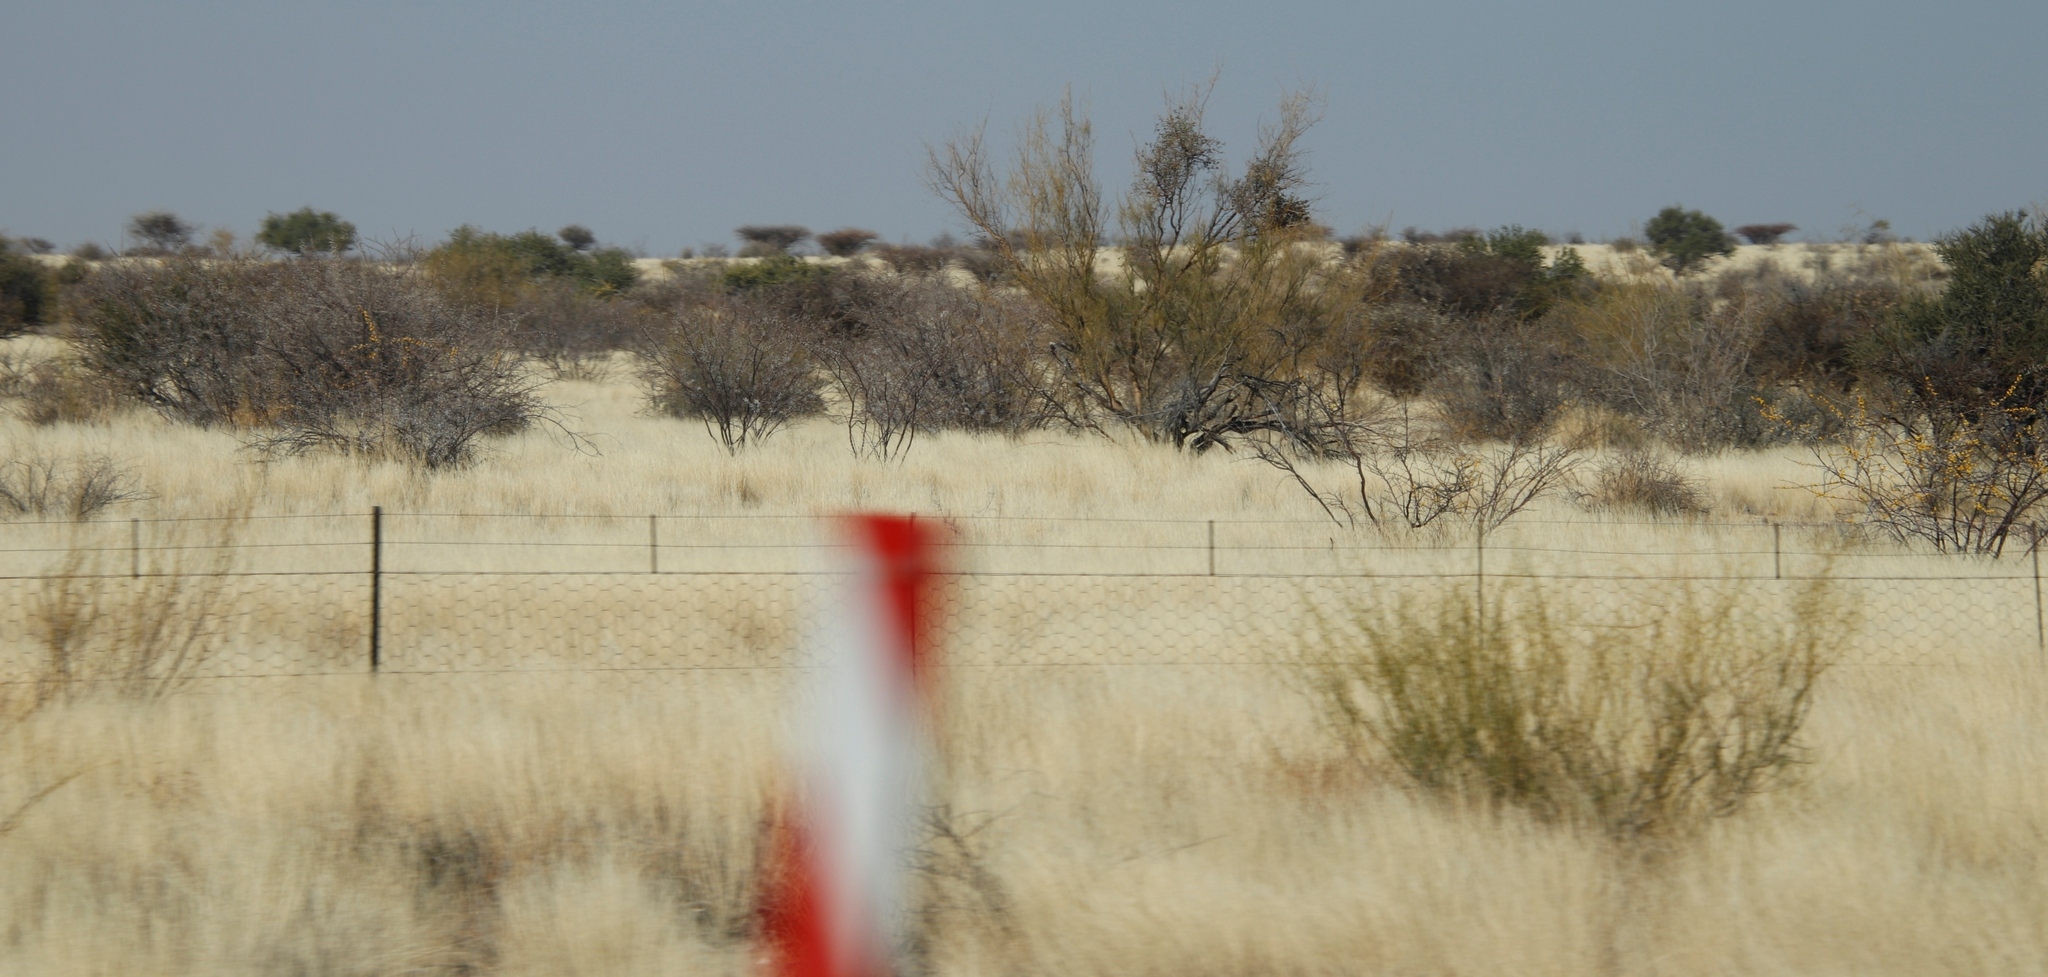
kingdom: Plantae
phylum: Tracheophyta
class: Magnoliopsida
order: Fabales
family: Fabaceae
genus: Senegalia
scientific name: Senegalia mellifera
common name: Hookthorn
